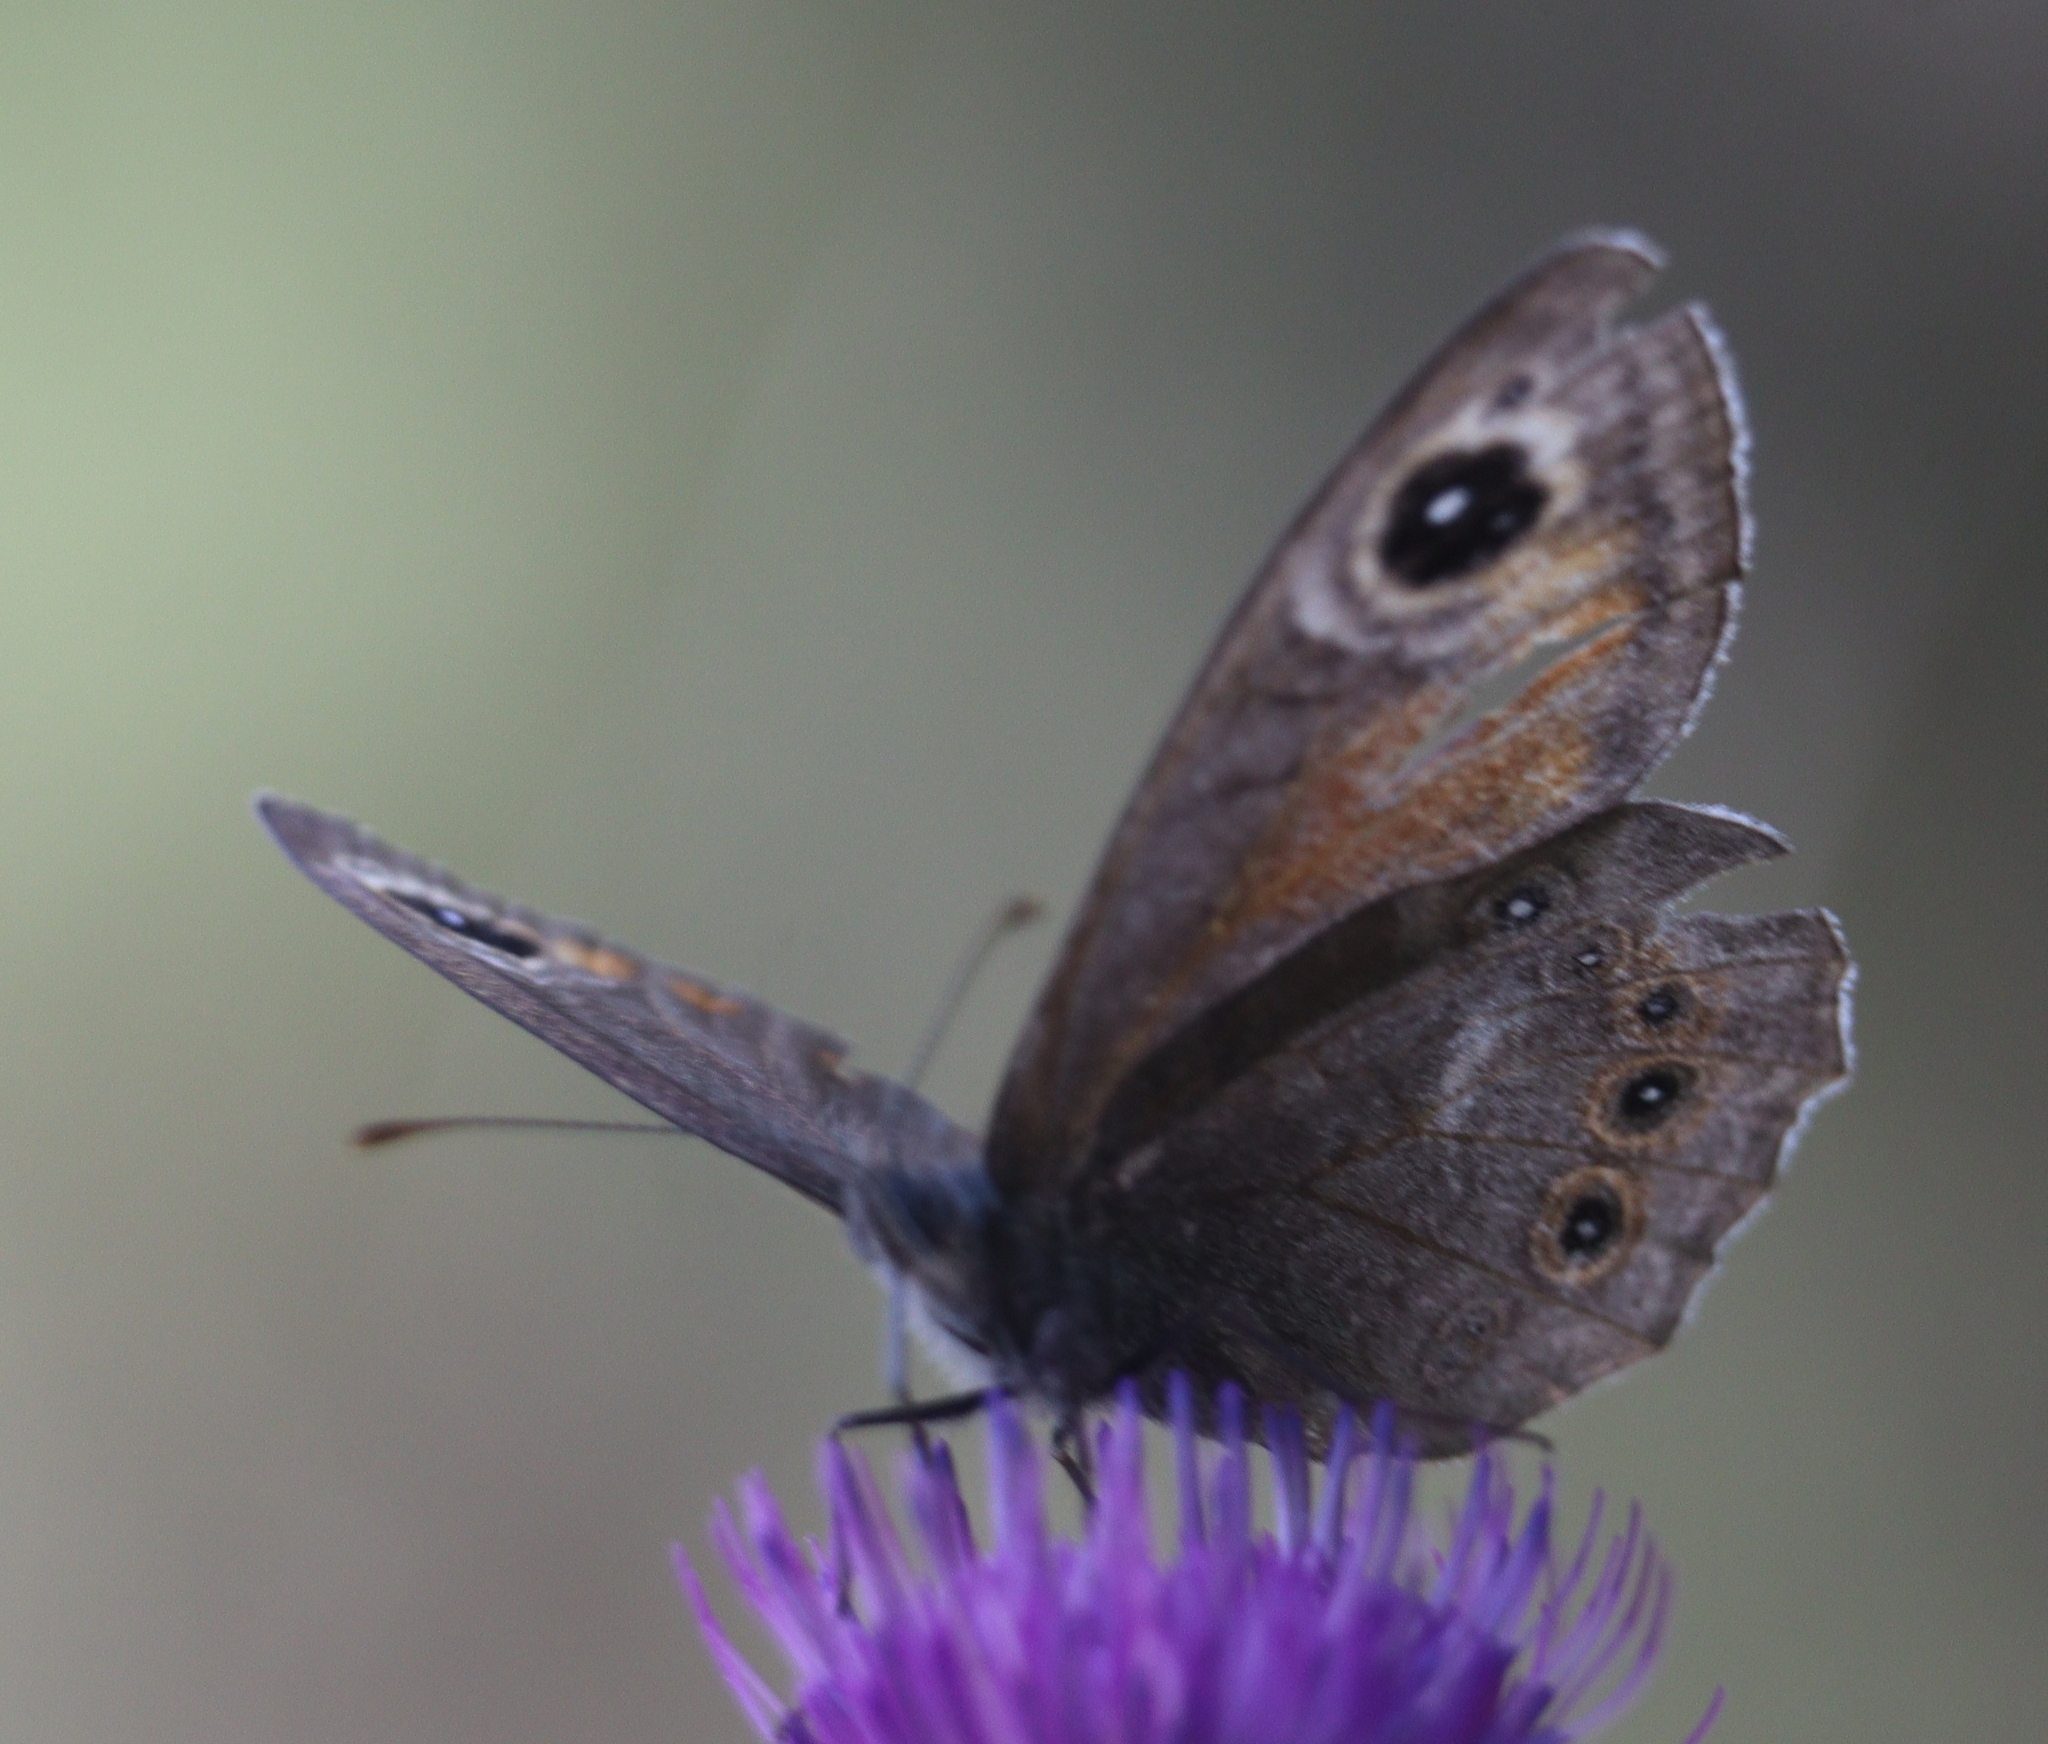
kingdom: Animalia
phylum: Arthropoda
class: Insecta
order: Lepidoptera
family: Nymphalidae
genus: Pararge
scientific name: Pararge Lasiommata maera
